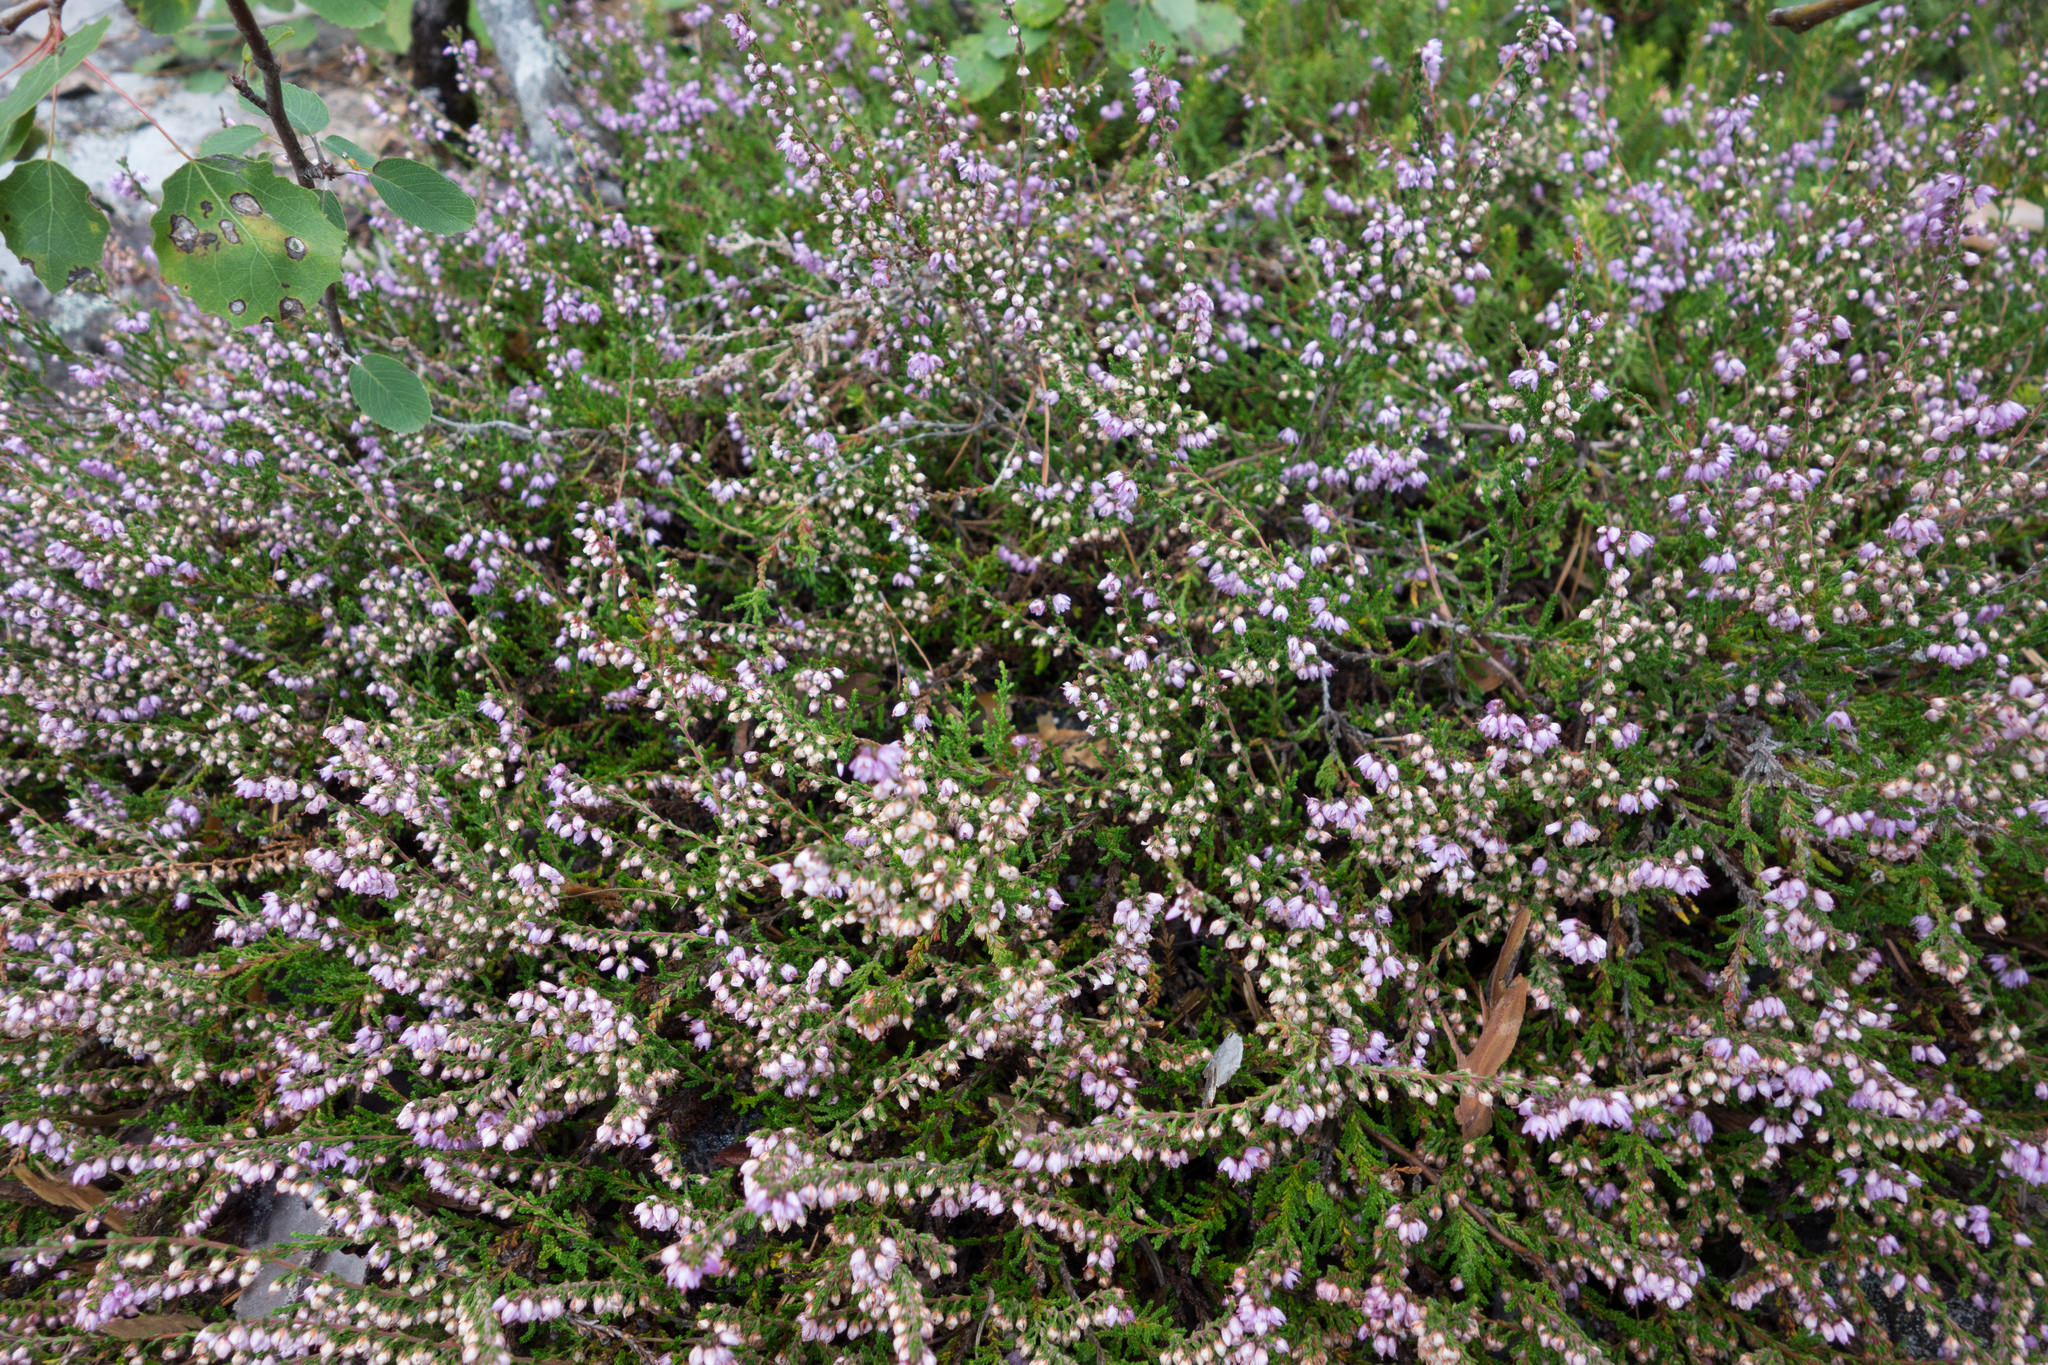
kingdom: Plantae
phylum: Tracheophyta
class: Magnoliopsida
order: Ericales
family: Ericaceae
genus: Calluna
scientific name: Calluna vulgaris
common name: Heather
